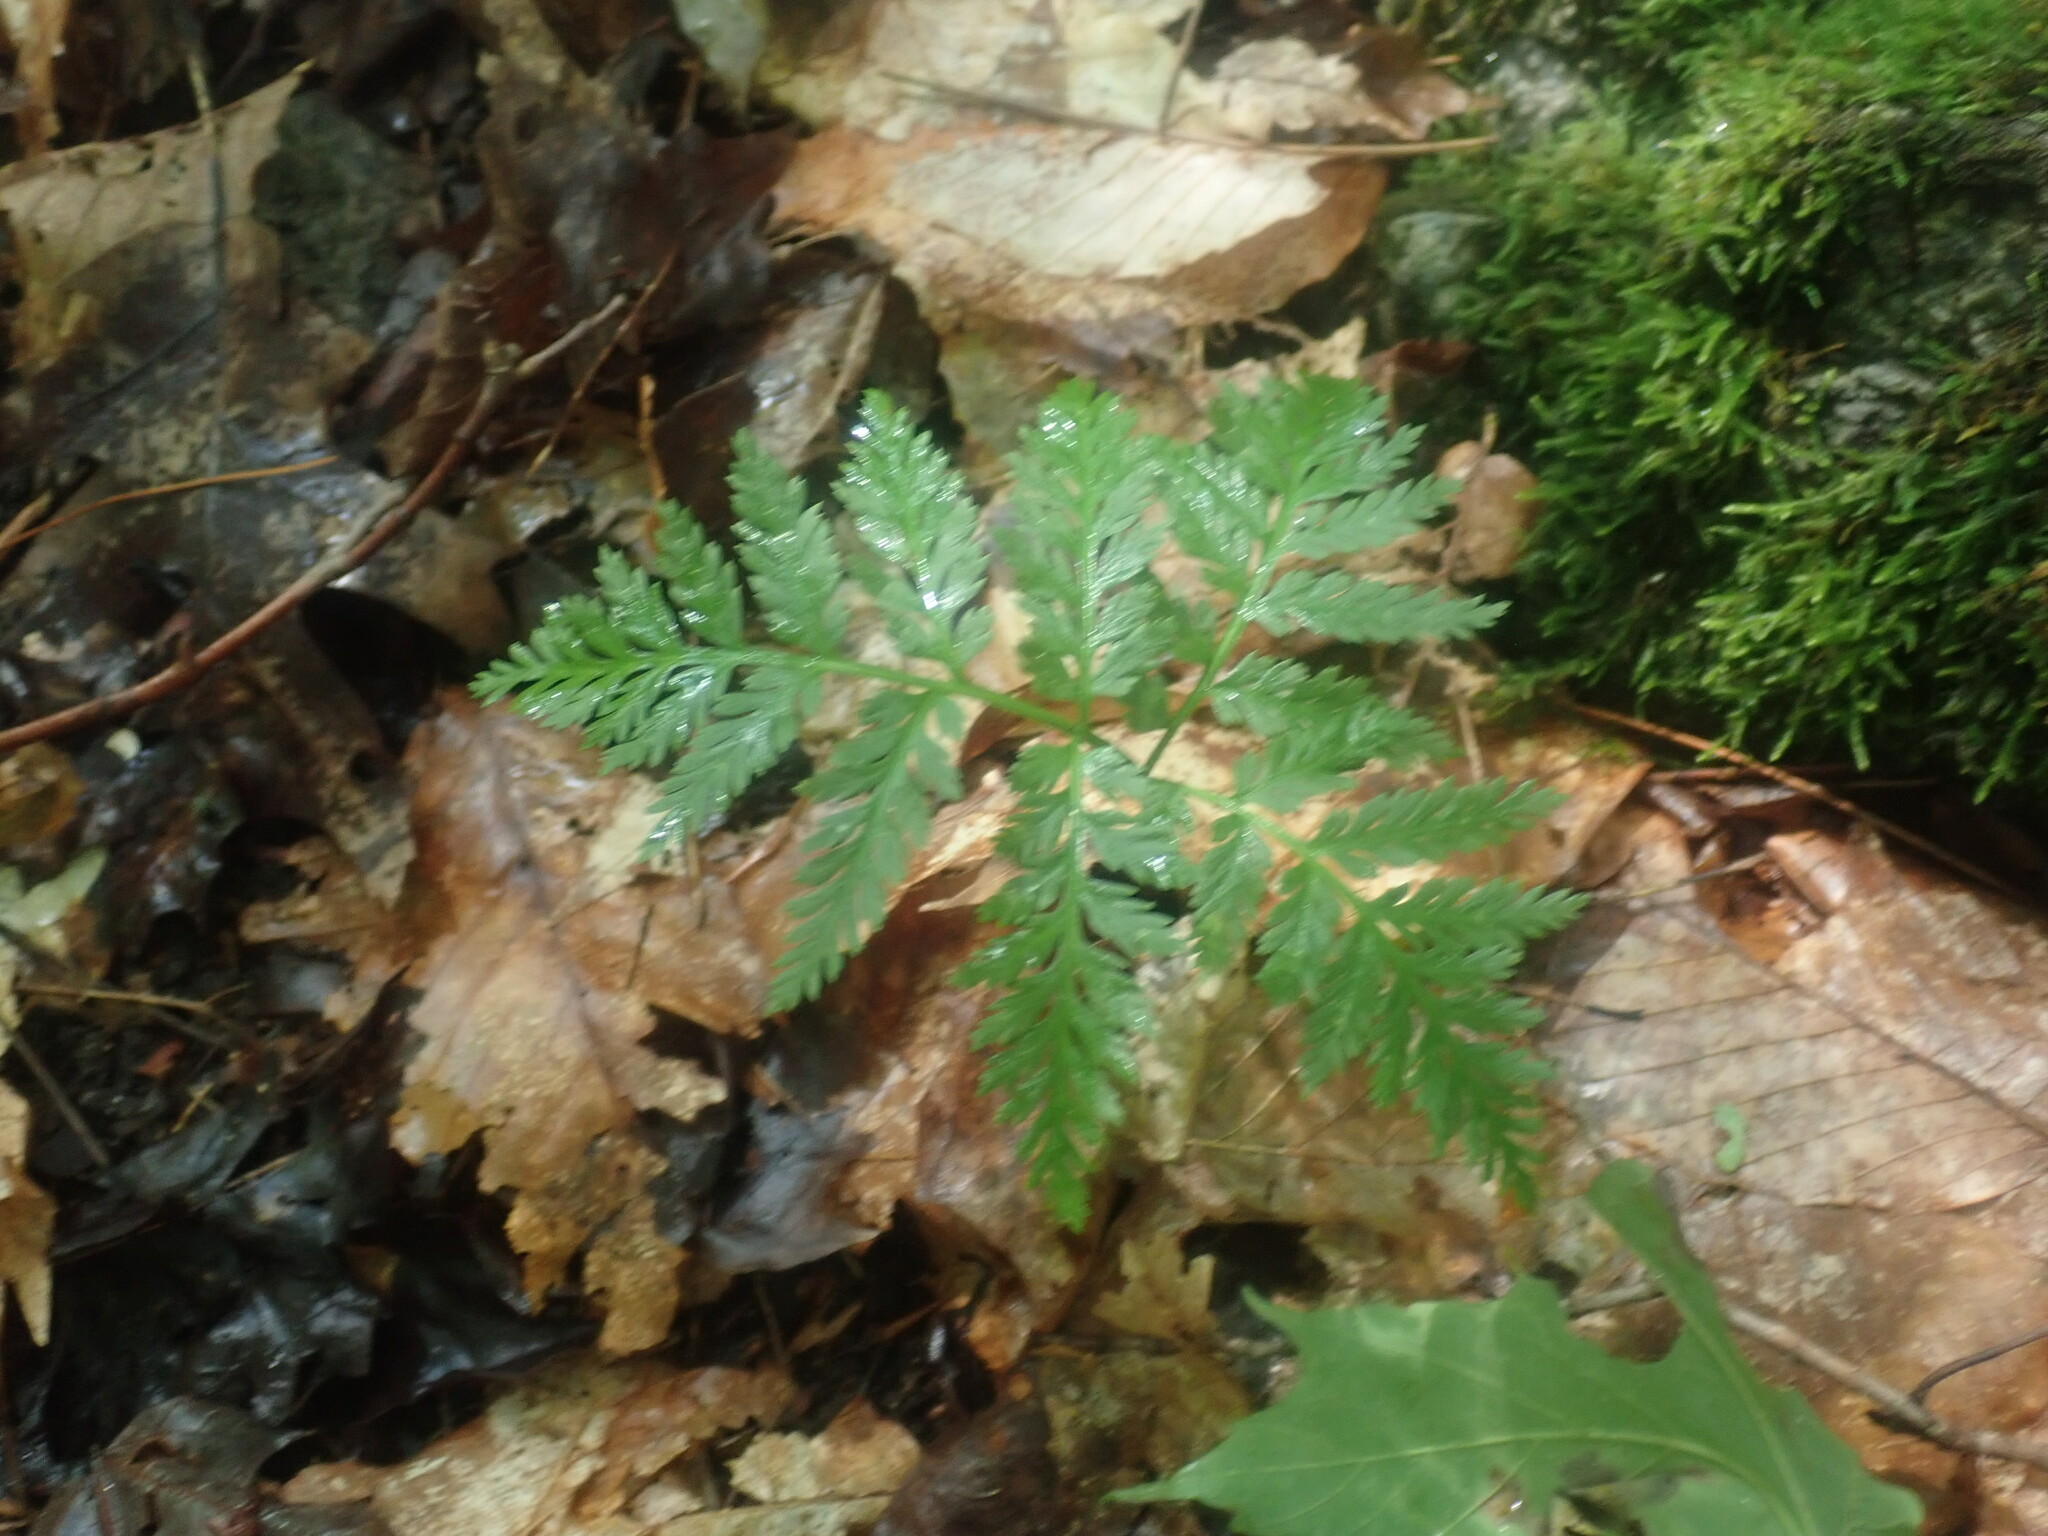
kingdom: Plantae
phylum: Tracheophyta
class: Polypodiopsida
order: Ophioglossales
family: Ophioglossaceae
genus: Botrypus
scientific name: Botrypus virginianus
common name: Common grapefern
